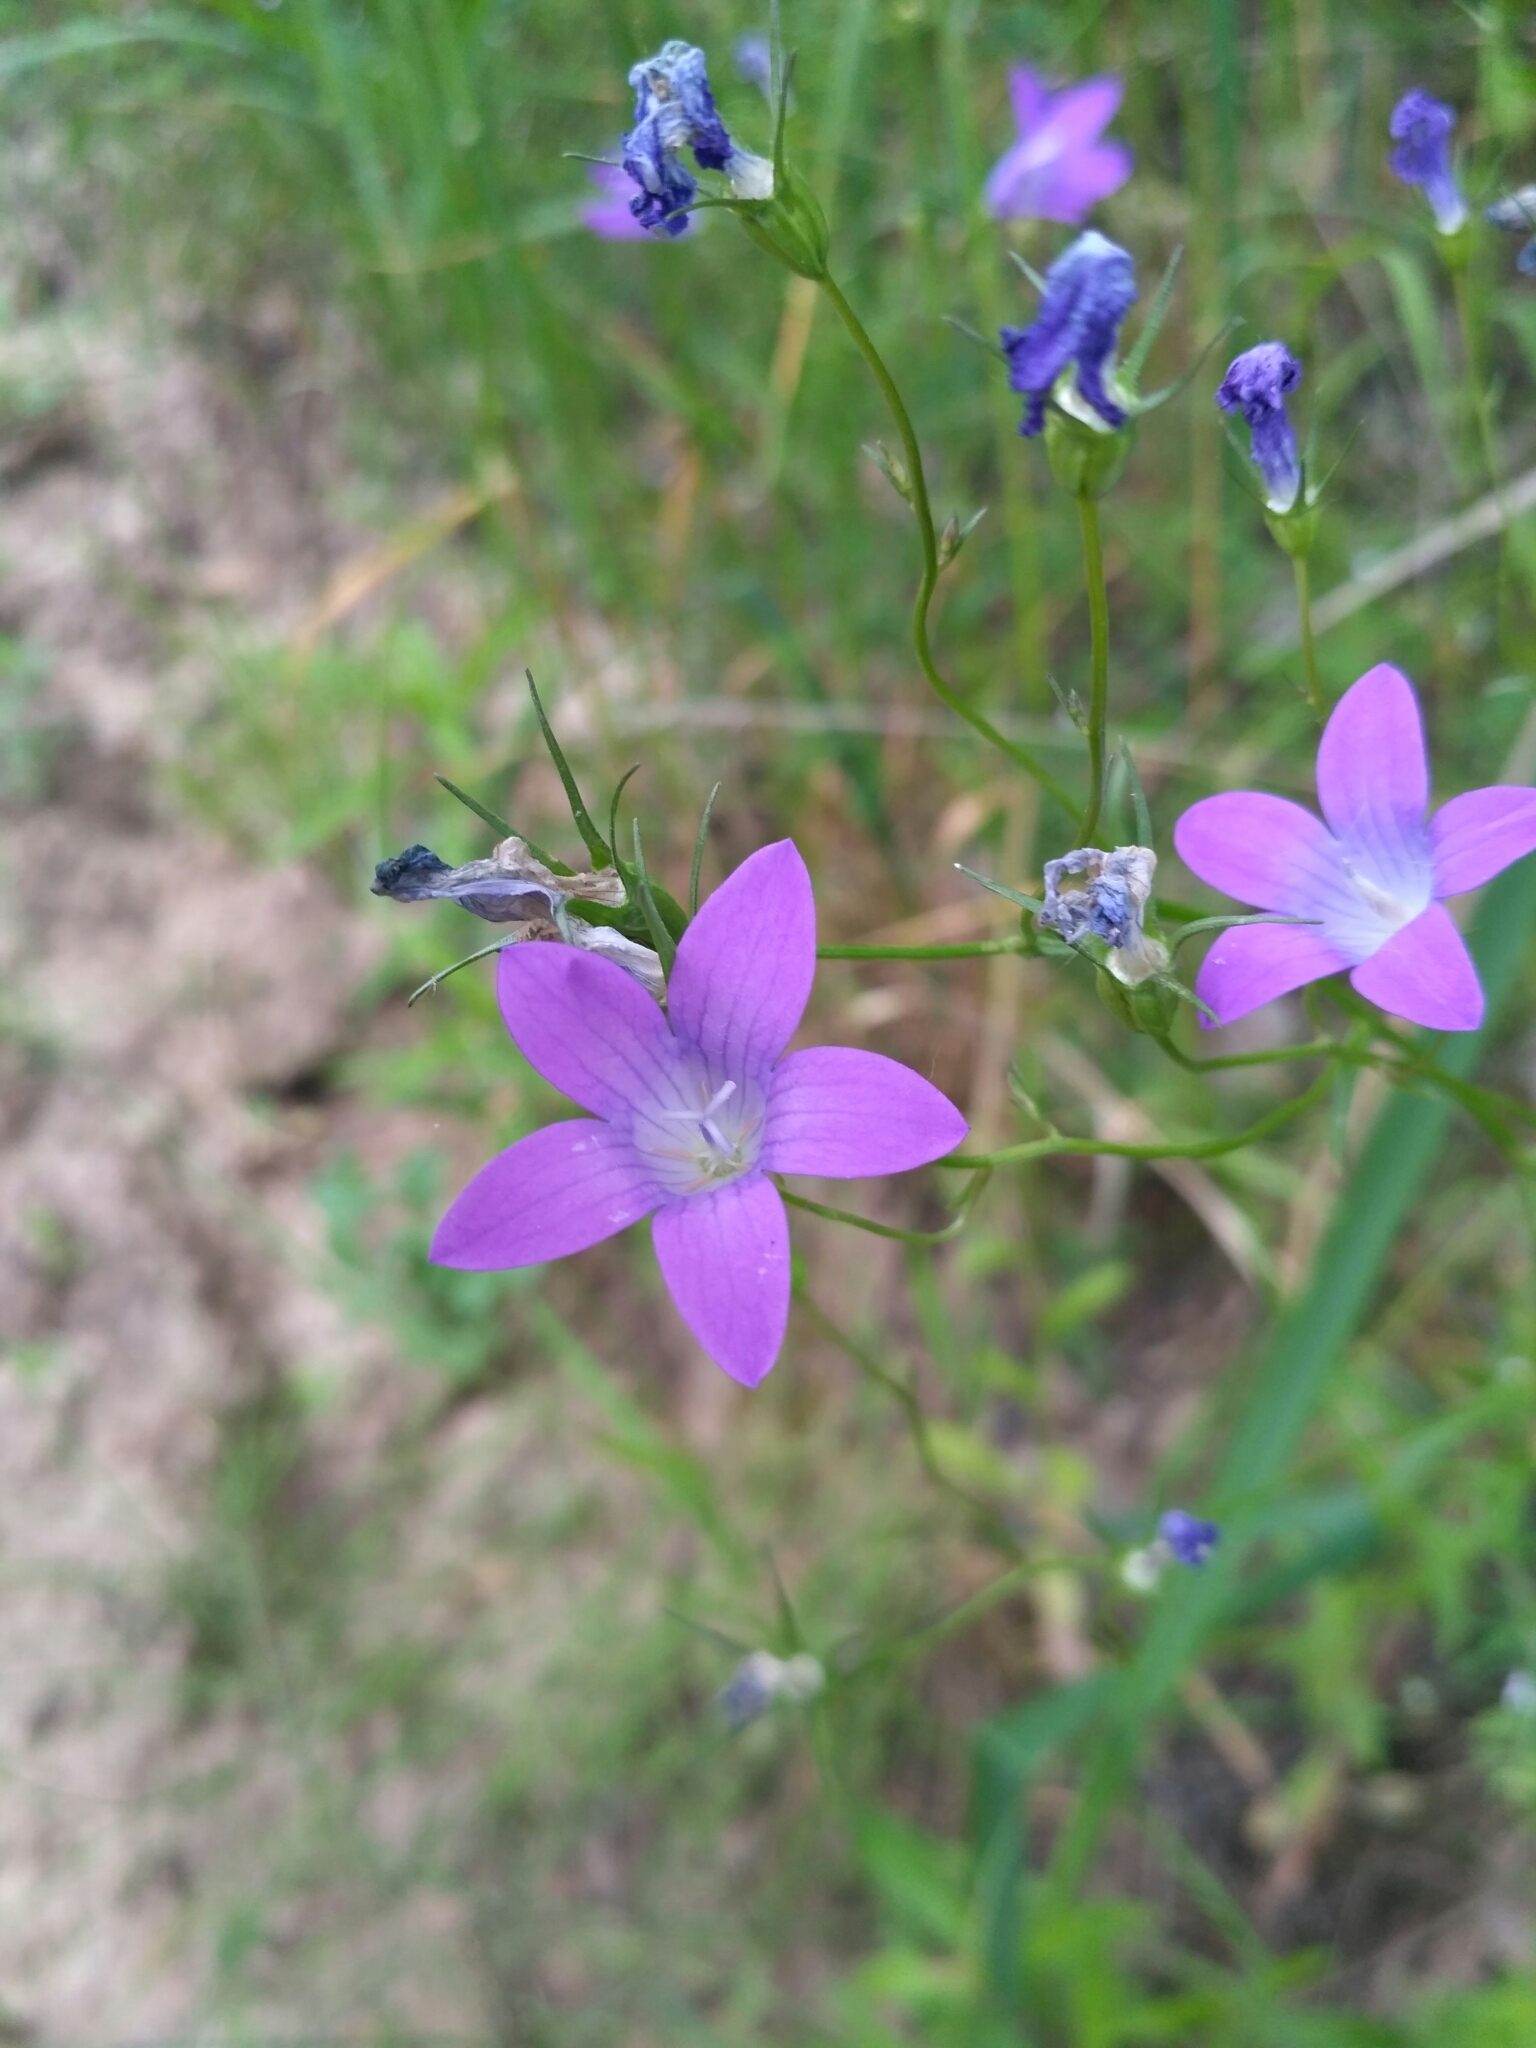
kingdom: Plantae
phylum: Tracheophyta
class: Magnoliopsida
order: Asterales
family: Campanulaceae
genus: Campanula
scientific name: Campanula patula
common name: Spreading bellflower
